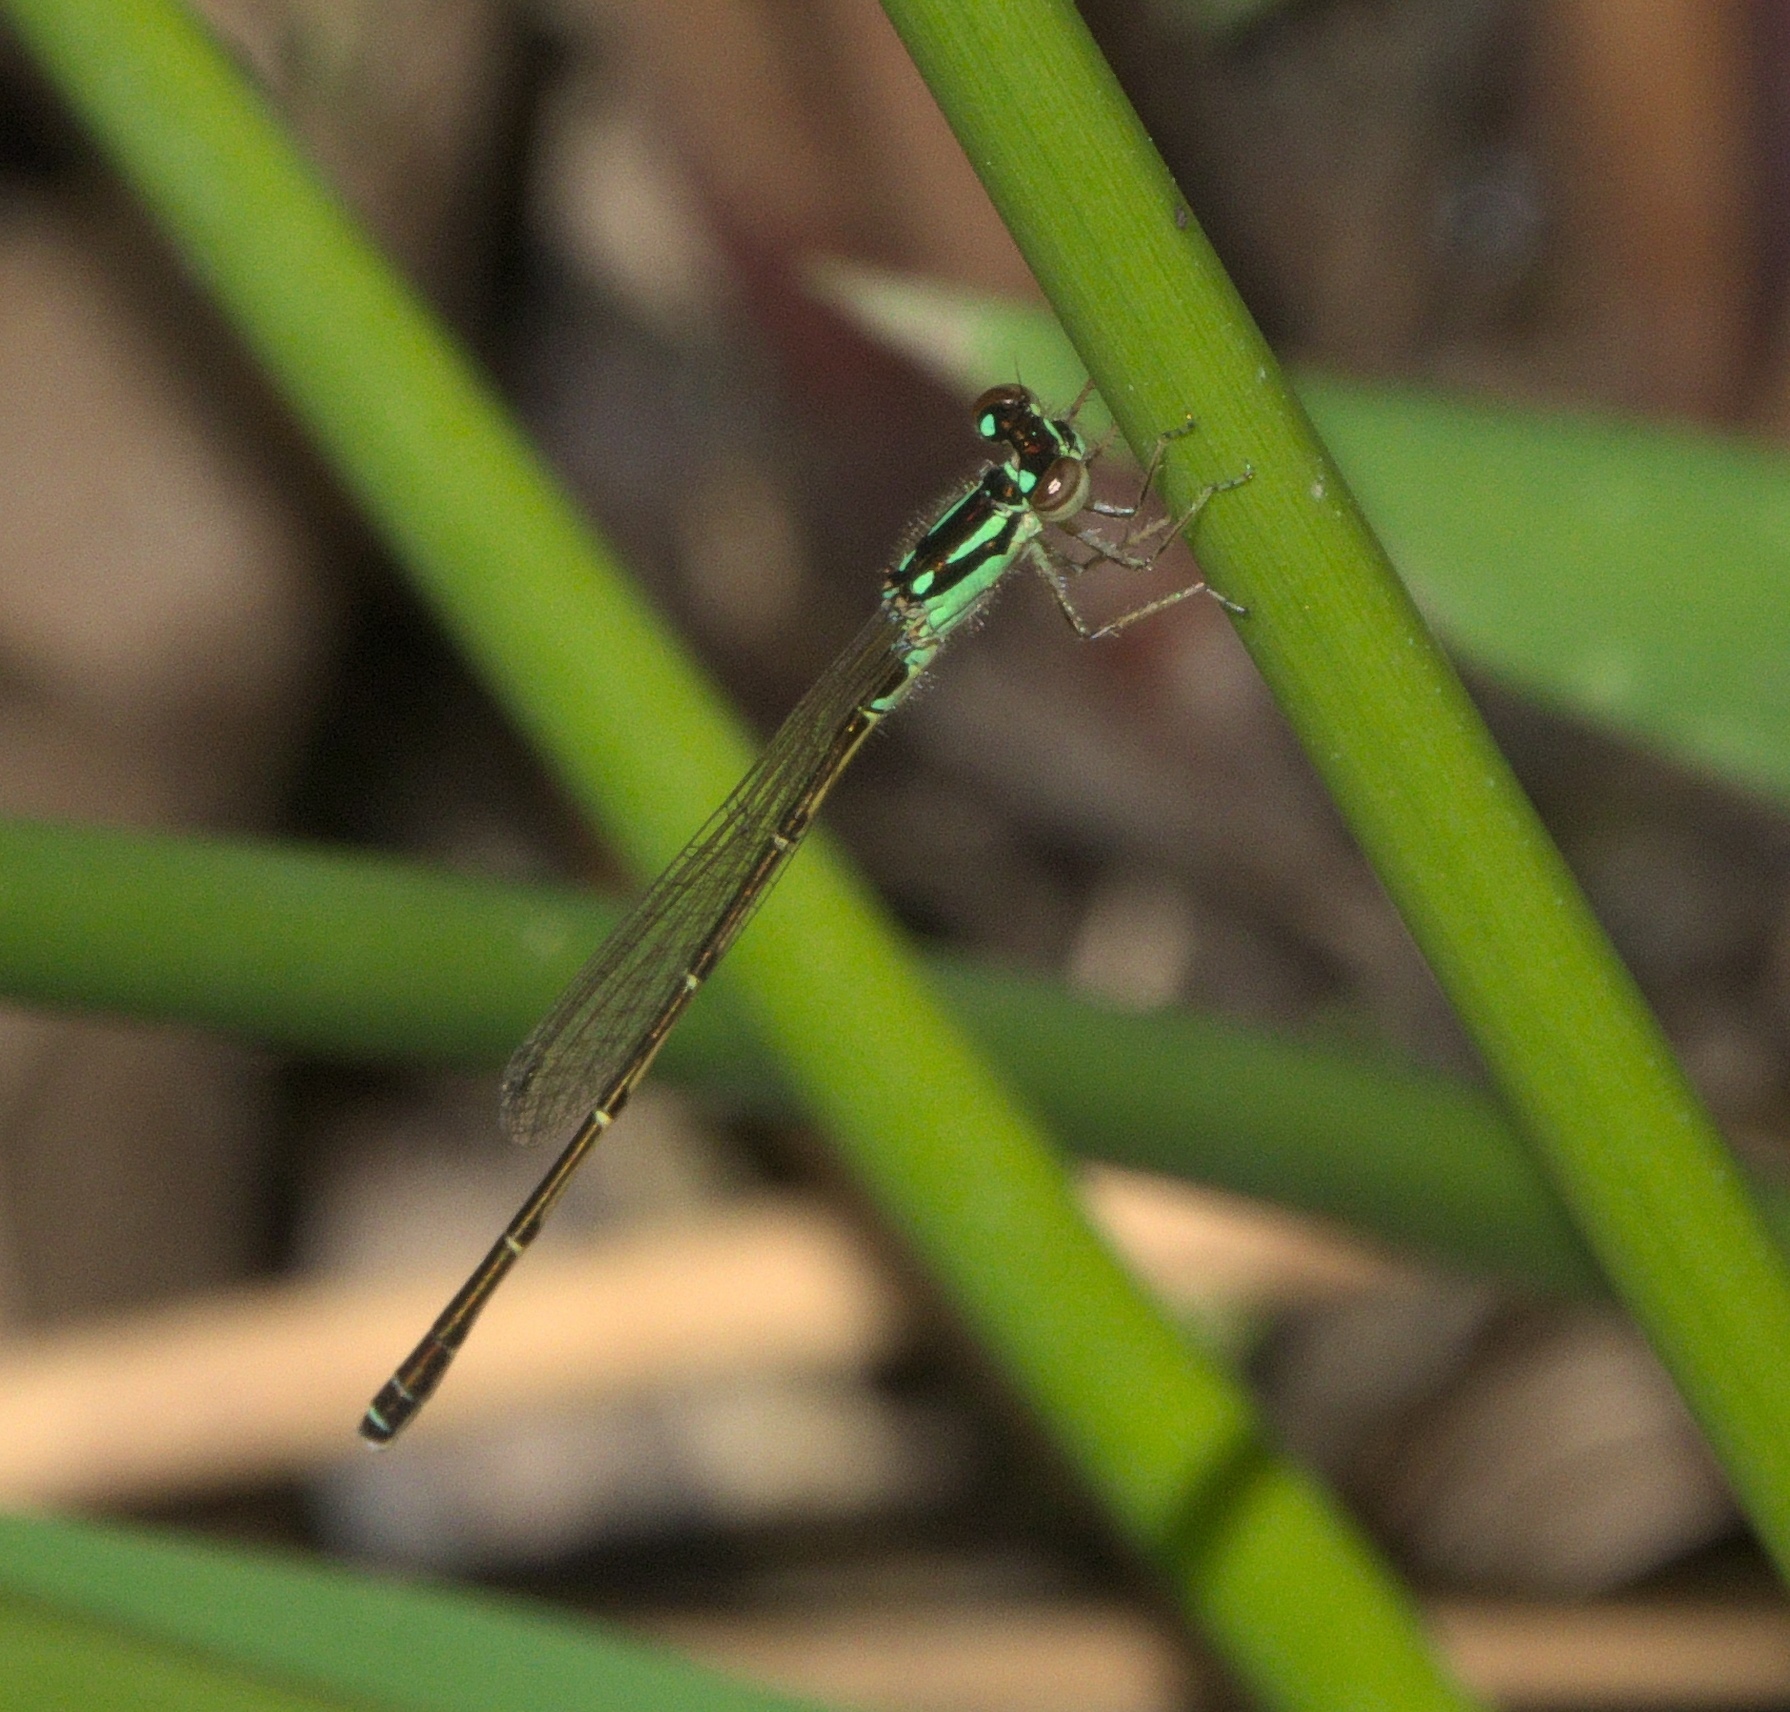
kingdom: Animalia
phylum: Arthropoda
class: Insecta
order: Odonata
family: Coenagrionidae
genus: Ischnura
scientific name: Ischnura posita
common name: Fragile forktail
